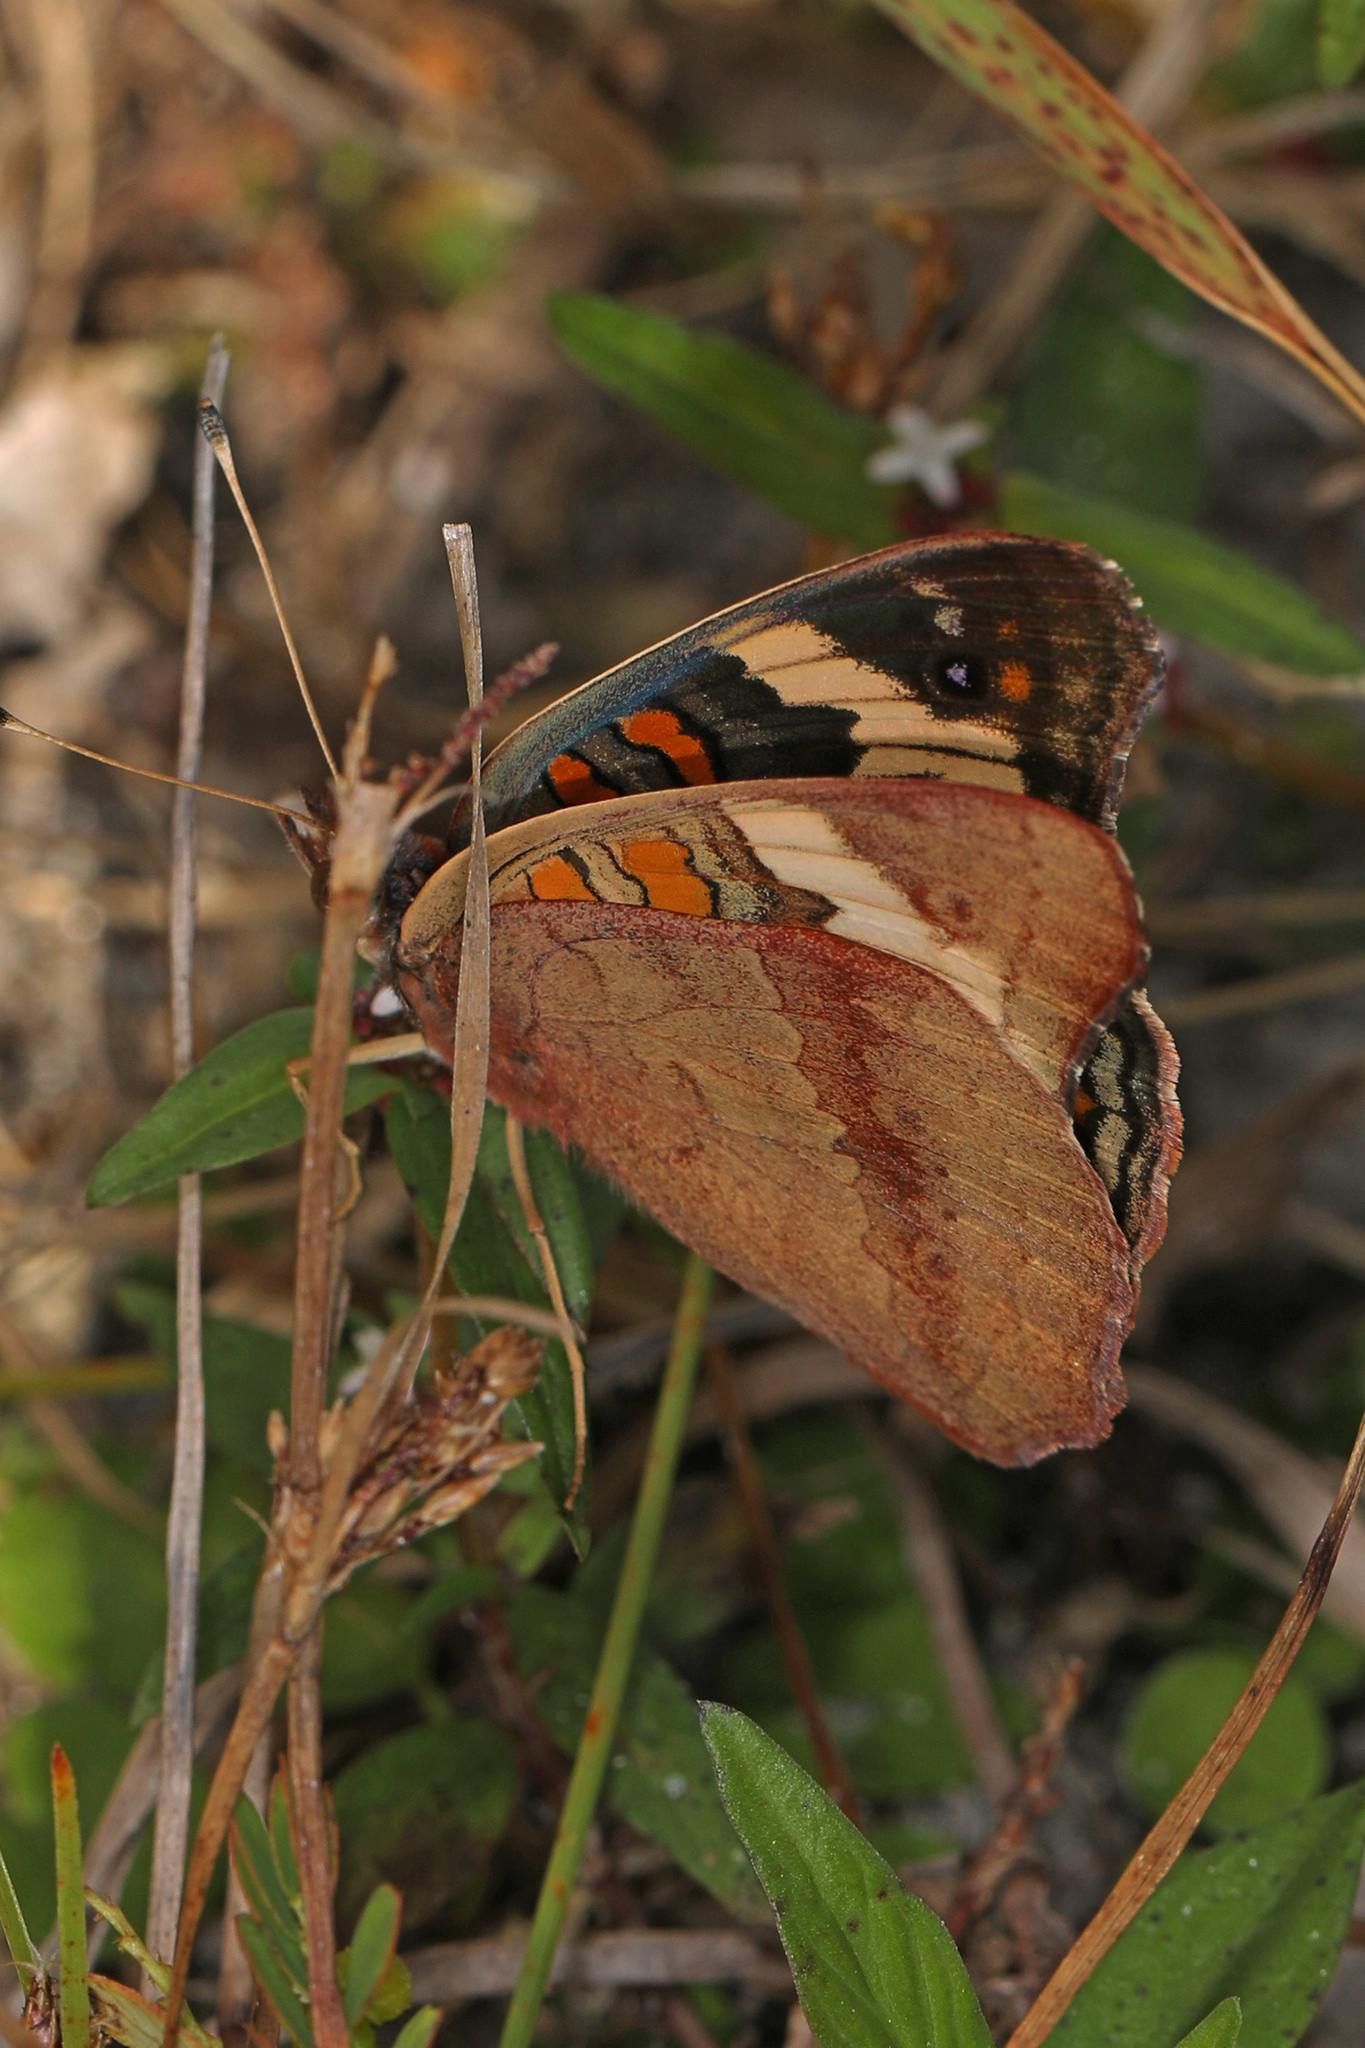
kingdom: Animalia
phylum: Arthropoda
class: Insecta
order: Lepidoptera
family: Nymphalidae
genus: Junonia
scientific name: Junonia coenia
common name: Common buckeye
